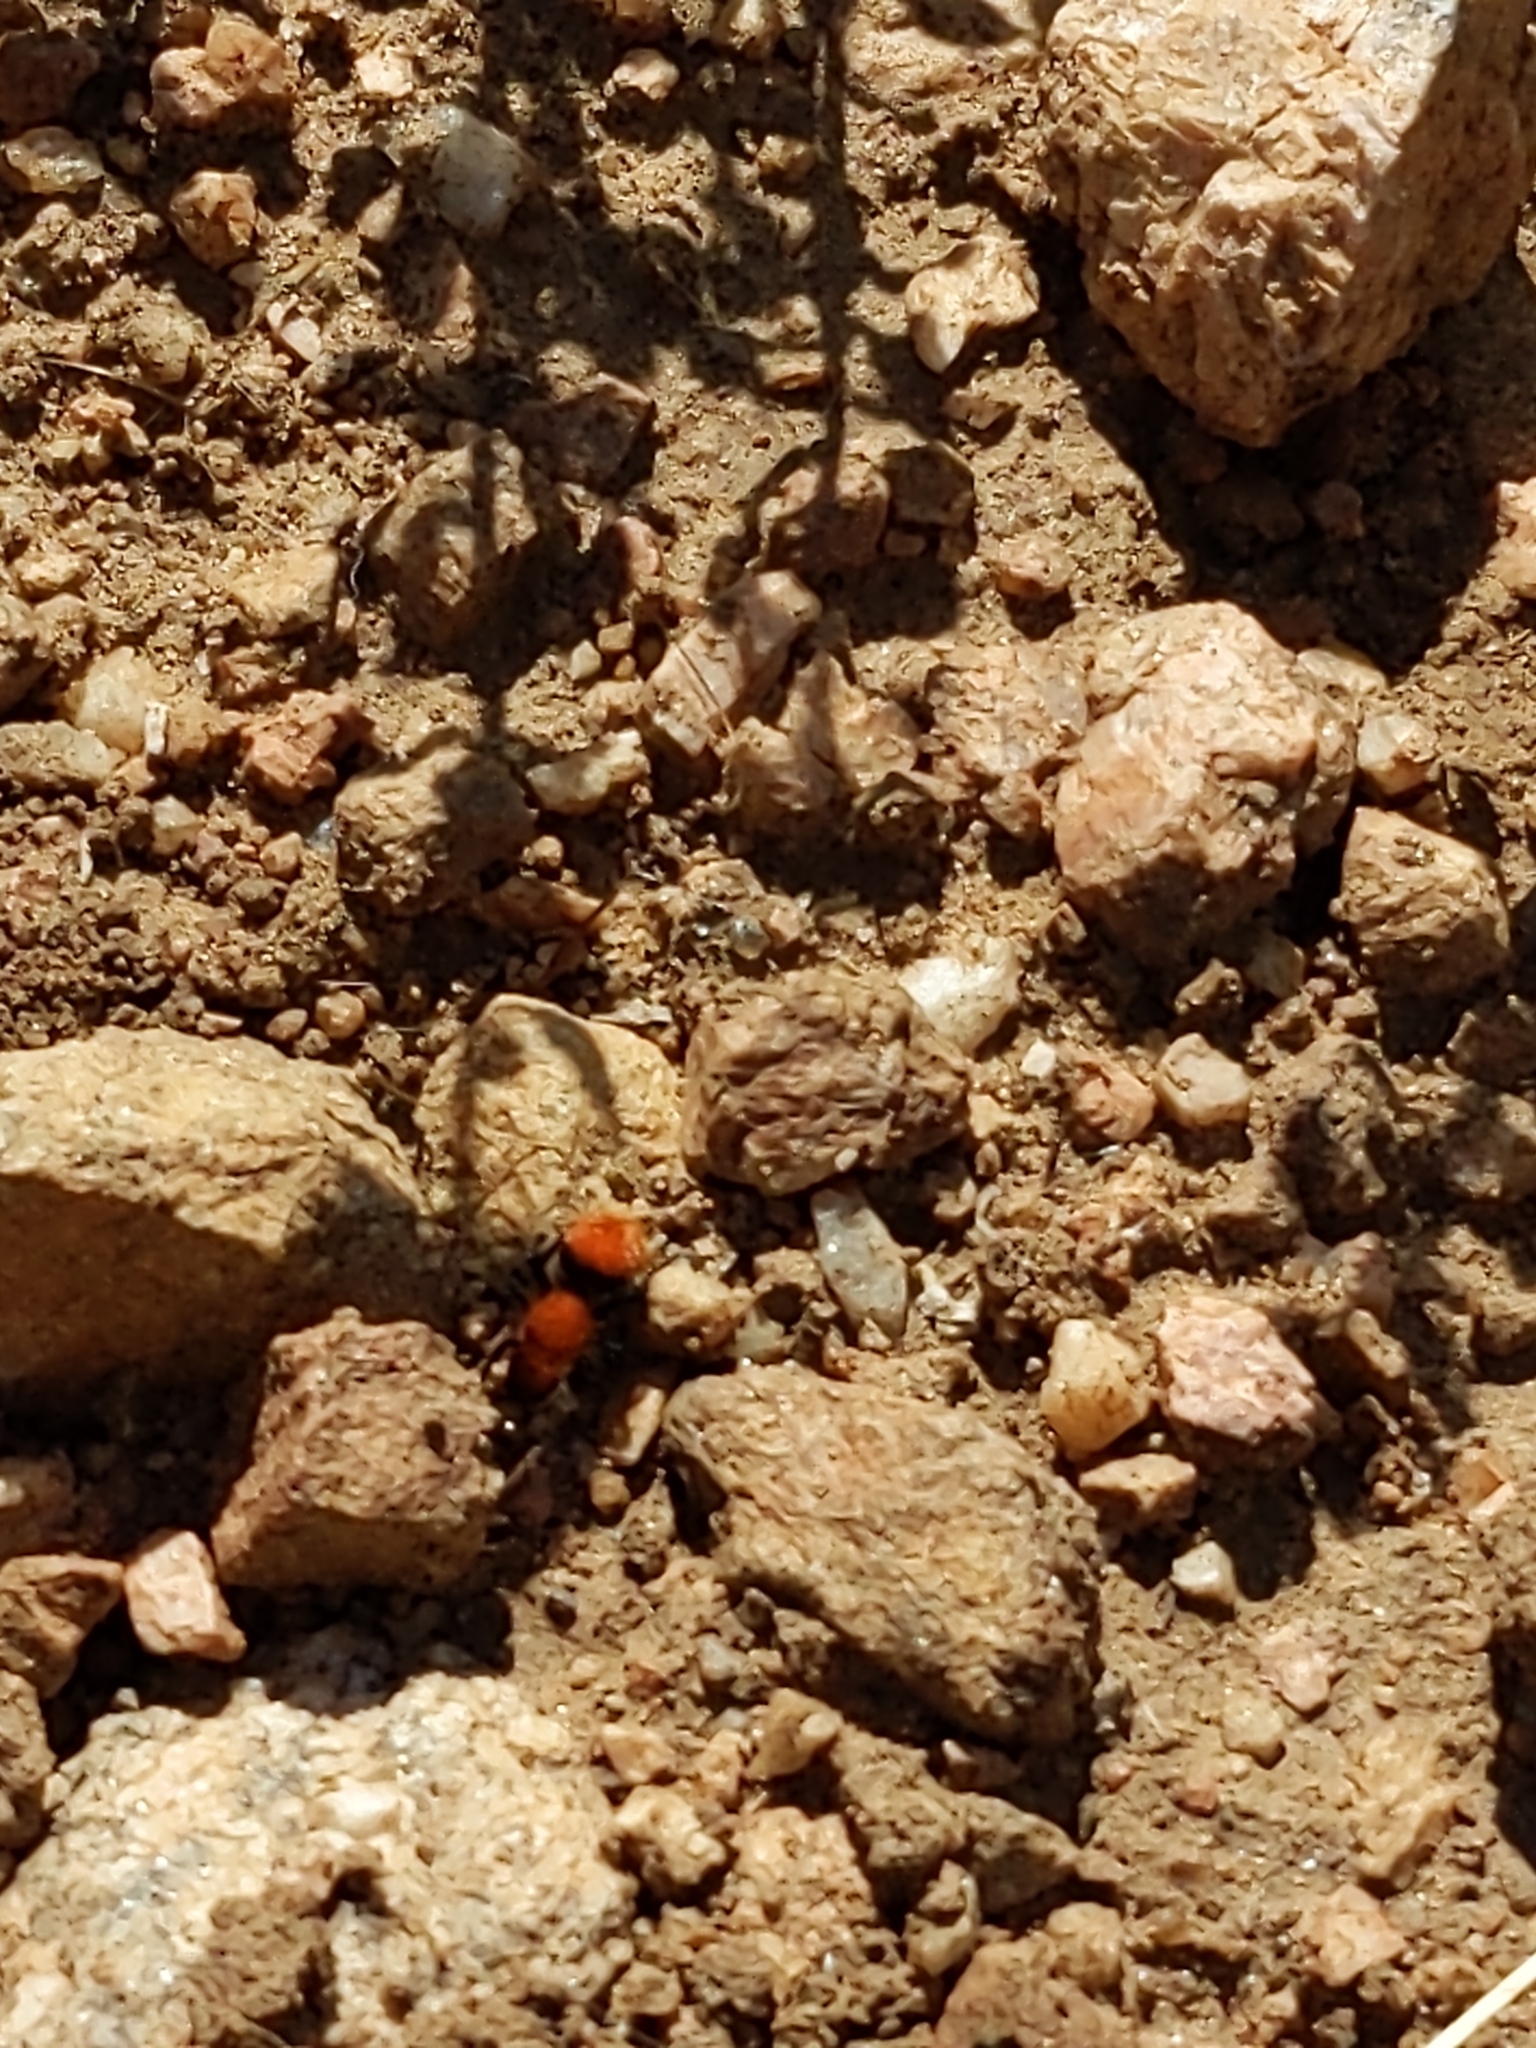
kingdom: Animalia
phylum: Arthropoda
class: Insecta
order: Hymenoptera
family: Mutillidae
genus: Dasymutilla
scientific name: Dasymutilla vestita
